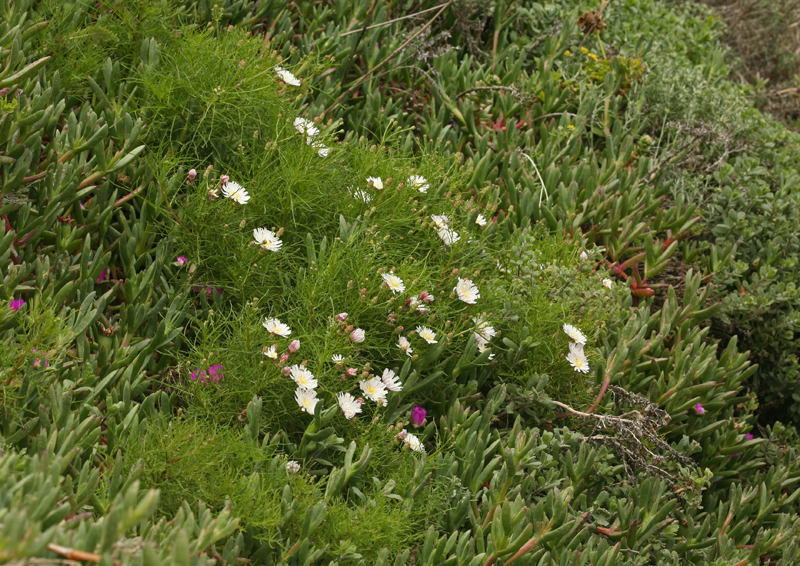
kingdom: Plantae
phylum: Tracheophyta
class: Magnoliopsida
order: Asterales
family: Asteraceae
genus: Malacothrix
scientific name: Malacothrix saxatilis
